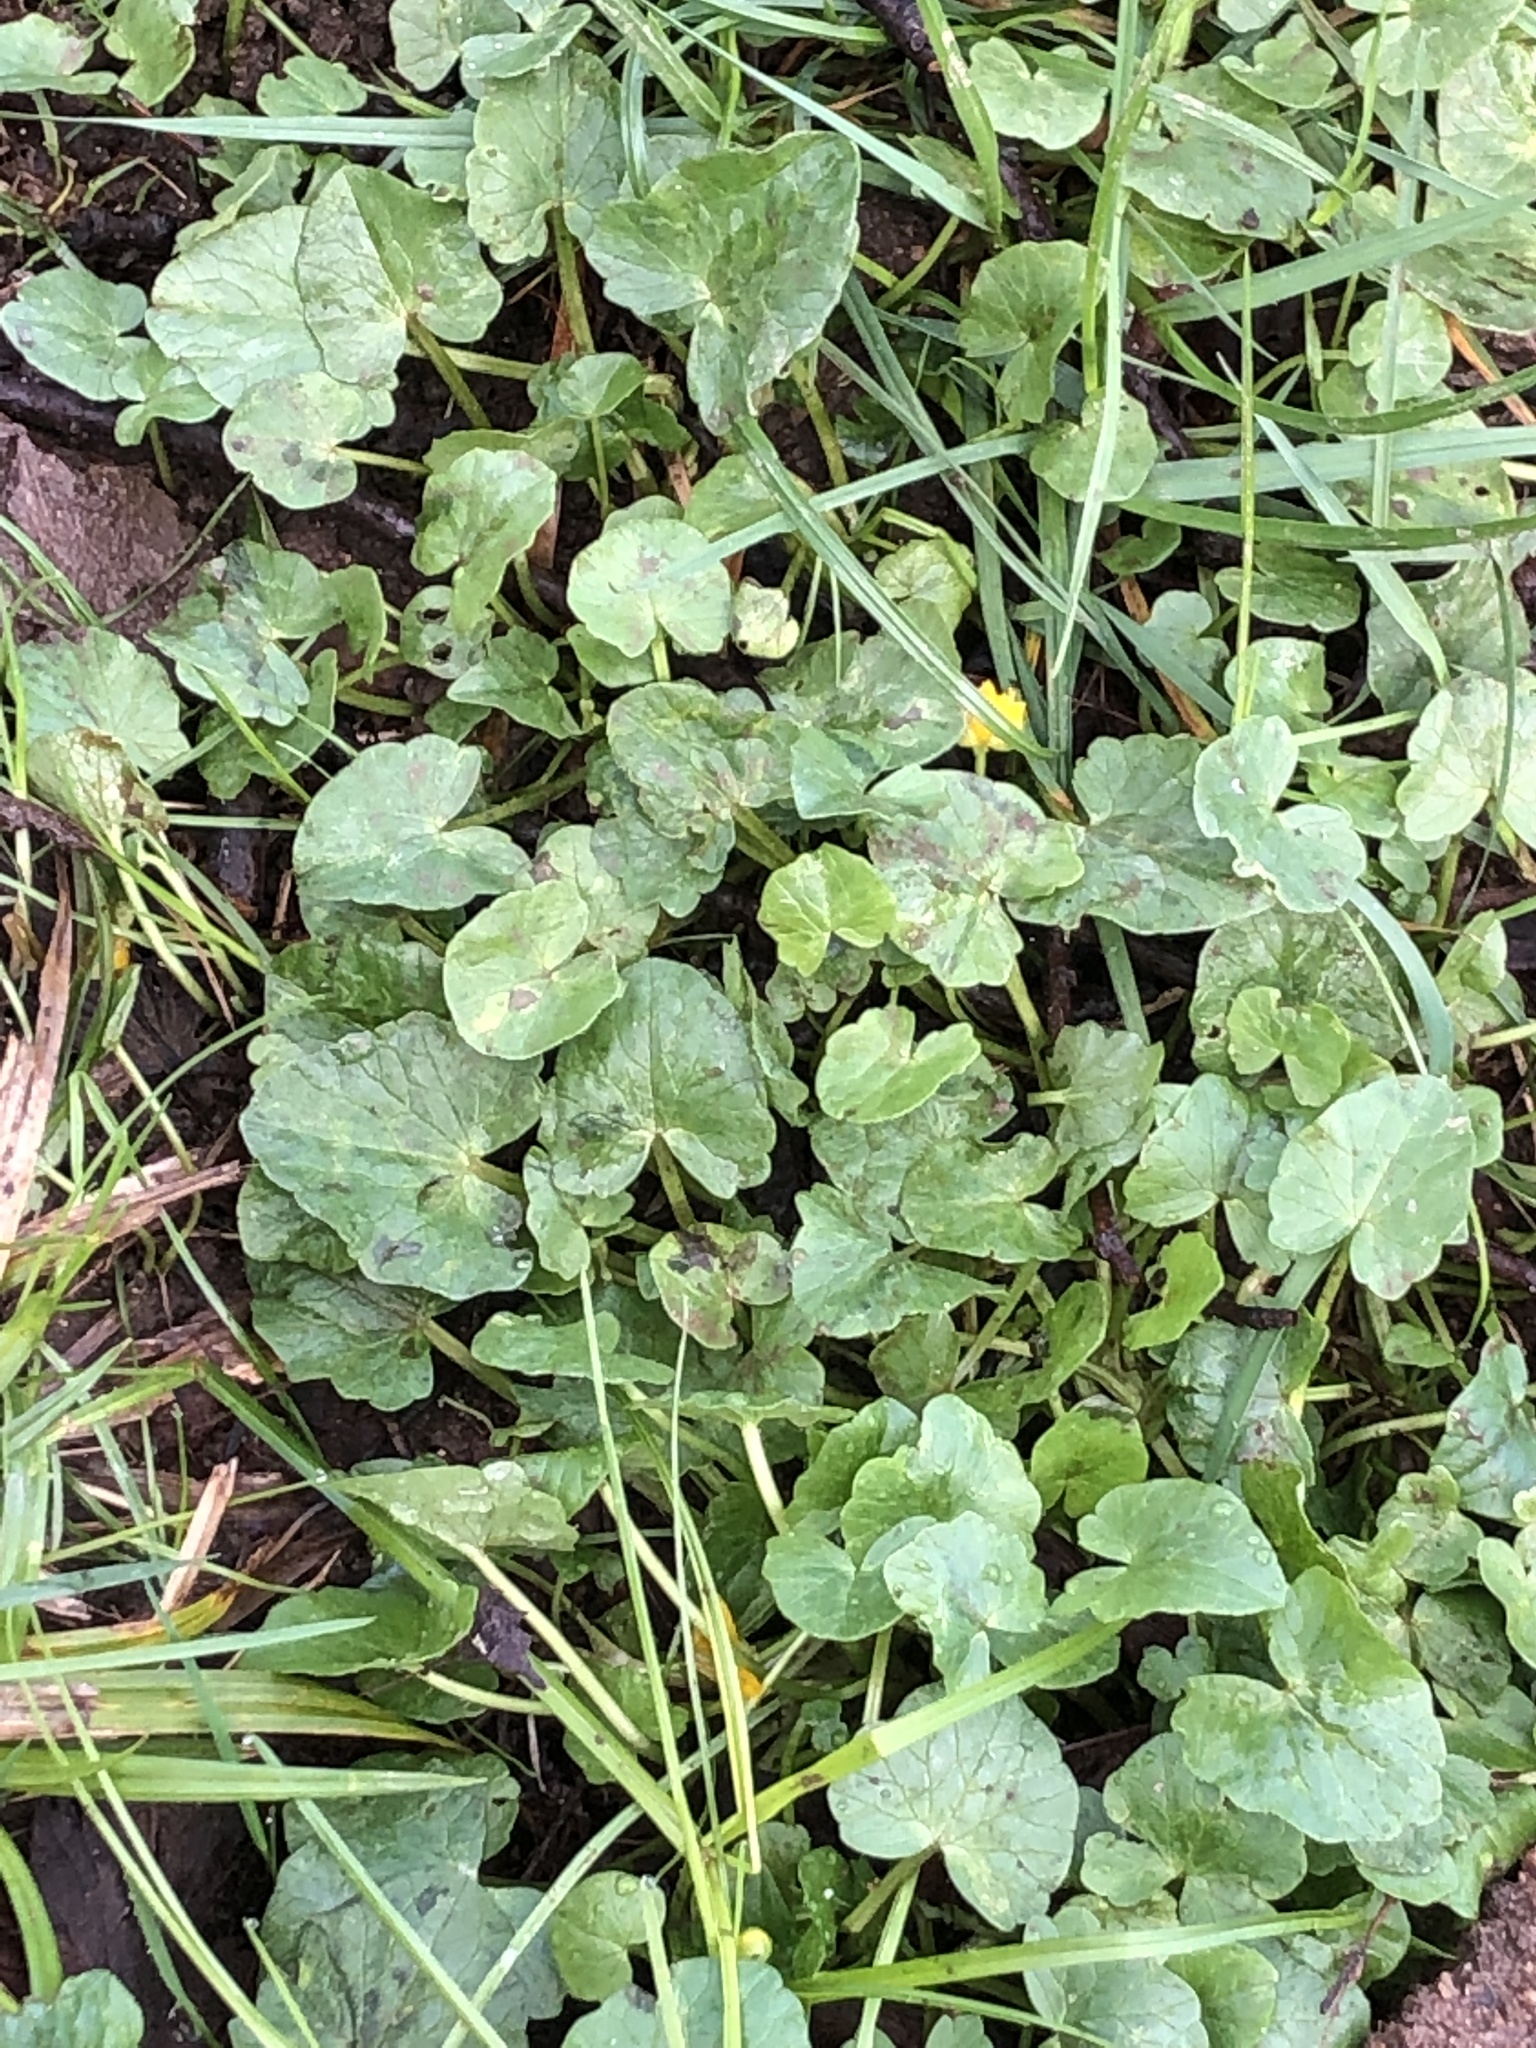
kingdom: Plantae
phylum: Tracheophyta
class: Magnoliopsida
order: Ranunculales
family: Ranunculaceae
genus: Ficaria
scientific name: Ficaria verna
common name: Lesser celandine
